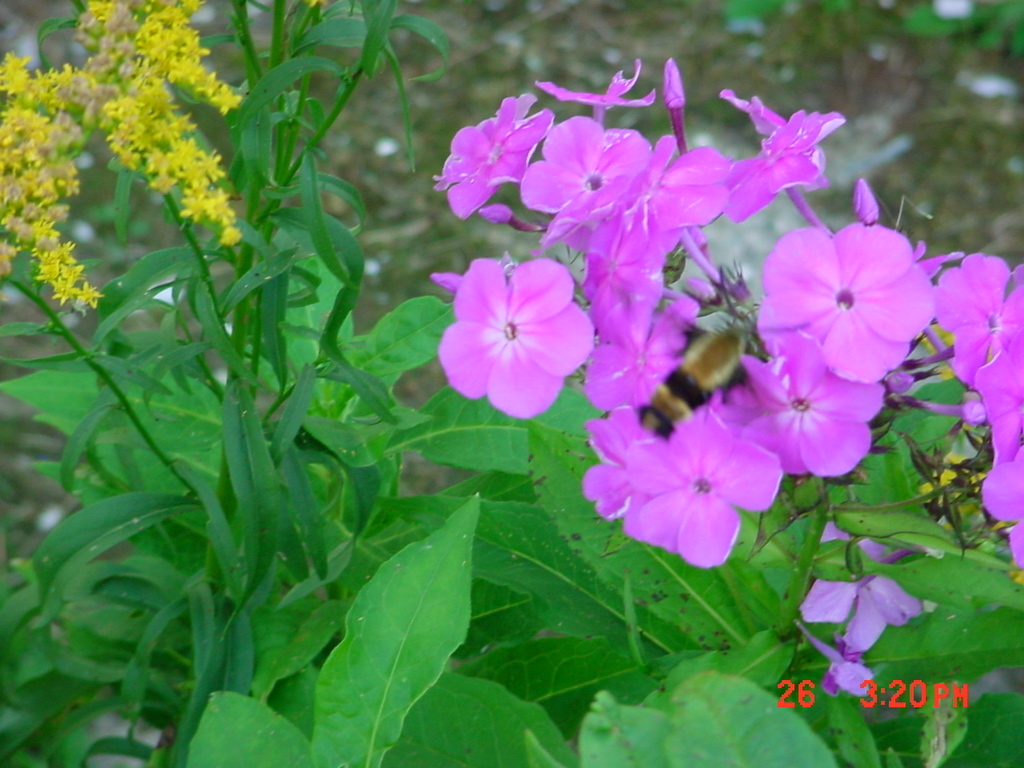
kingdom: Animalia
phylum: Arthropoda
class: Insecta
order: Lepidoptera
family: Sphingidae
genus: Hemaris
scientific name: Hemaris diffinis
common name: Bumblebee moth
